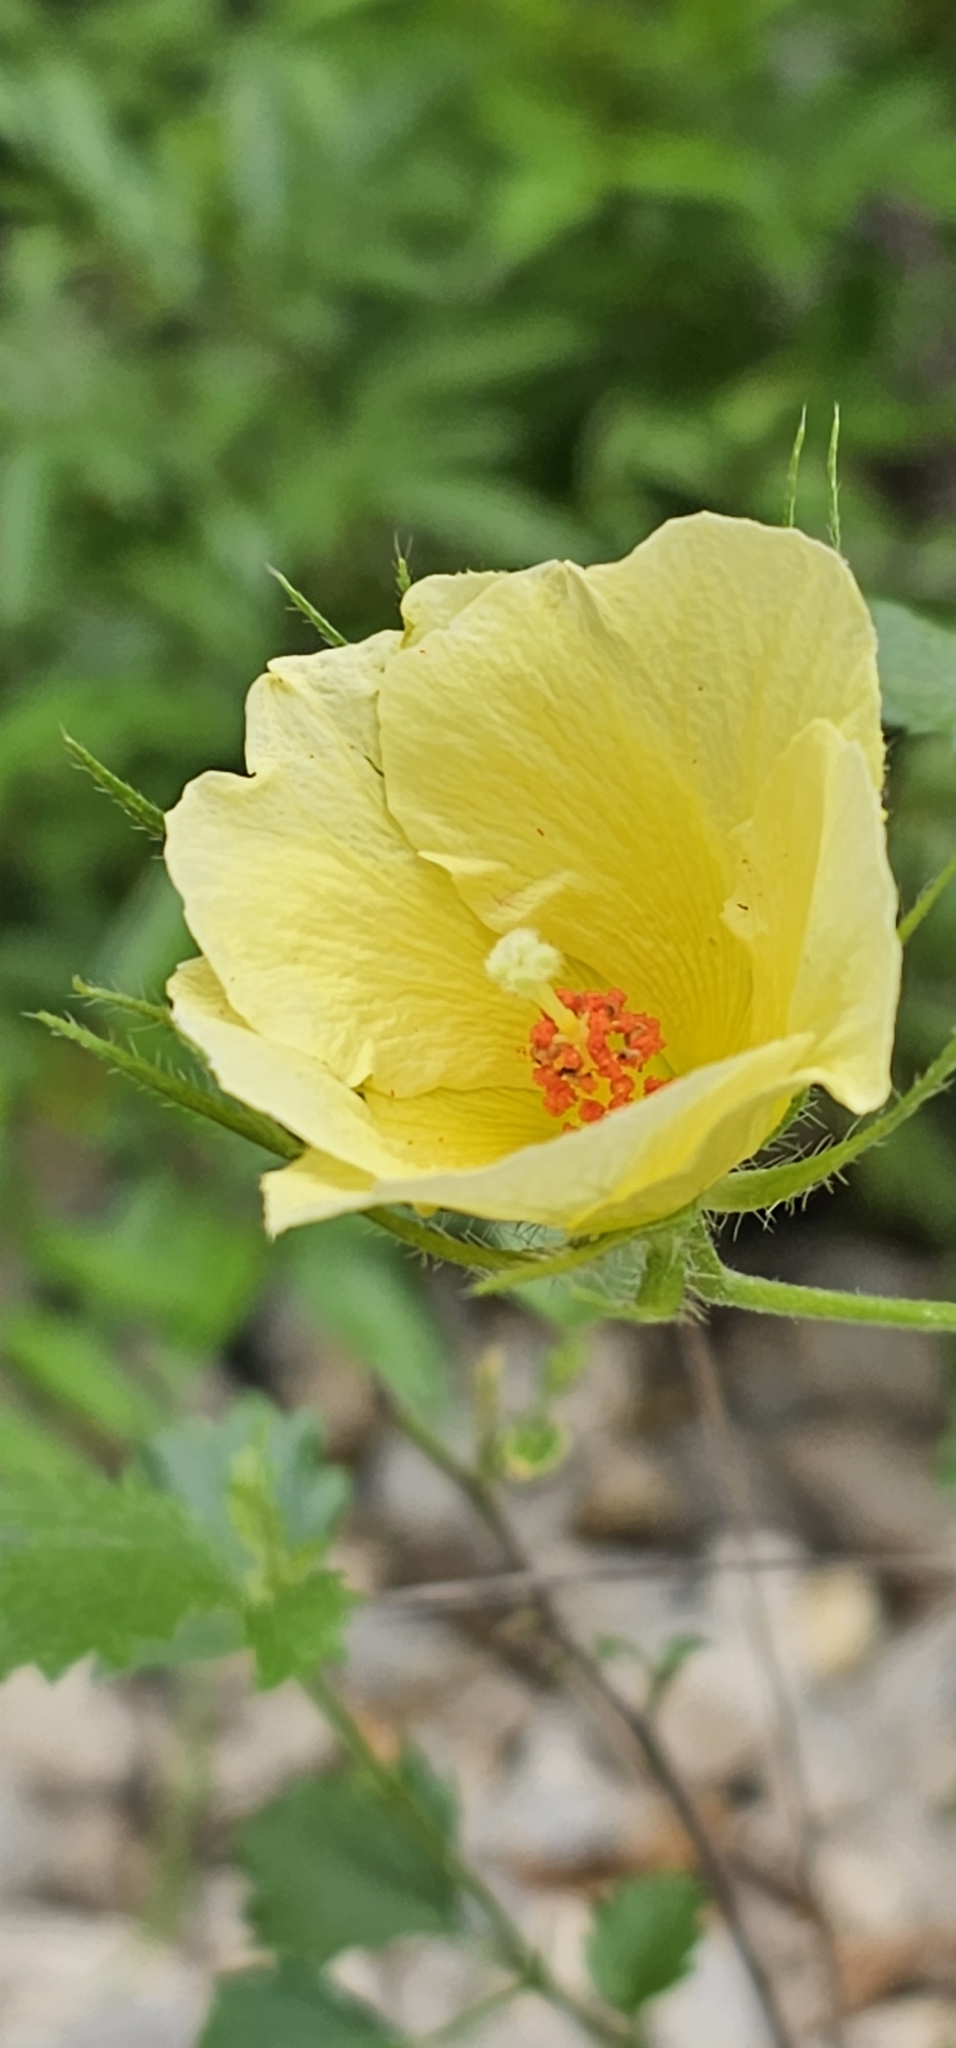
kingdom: Plantae
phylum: Tracheophyta
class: Magnoliopsida
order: Malvales
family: Malvaceae
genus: Hibiscus
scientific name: Hibiscus coulteri
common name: Desert rose-mallow
